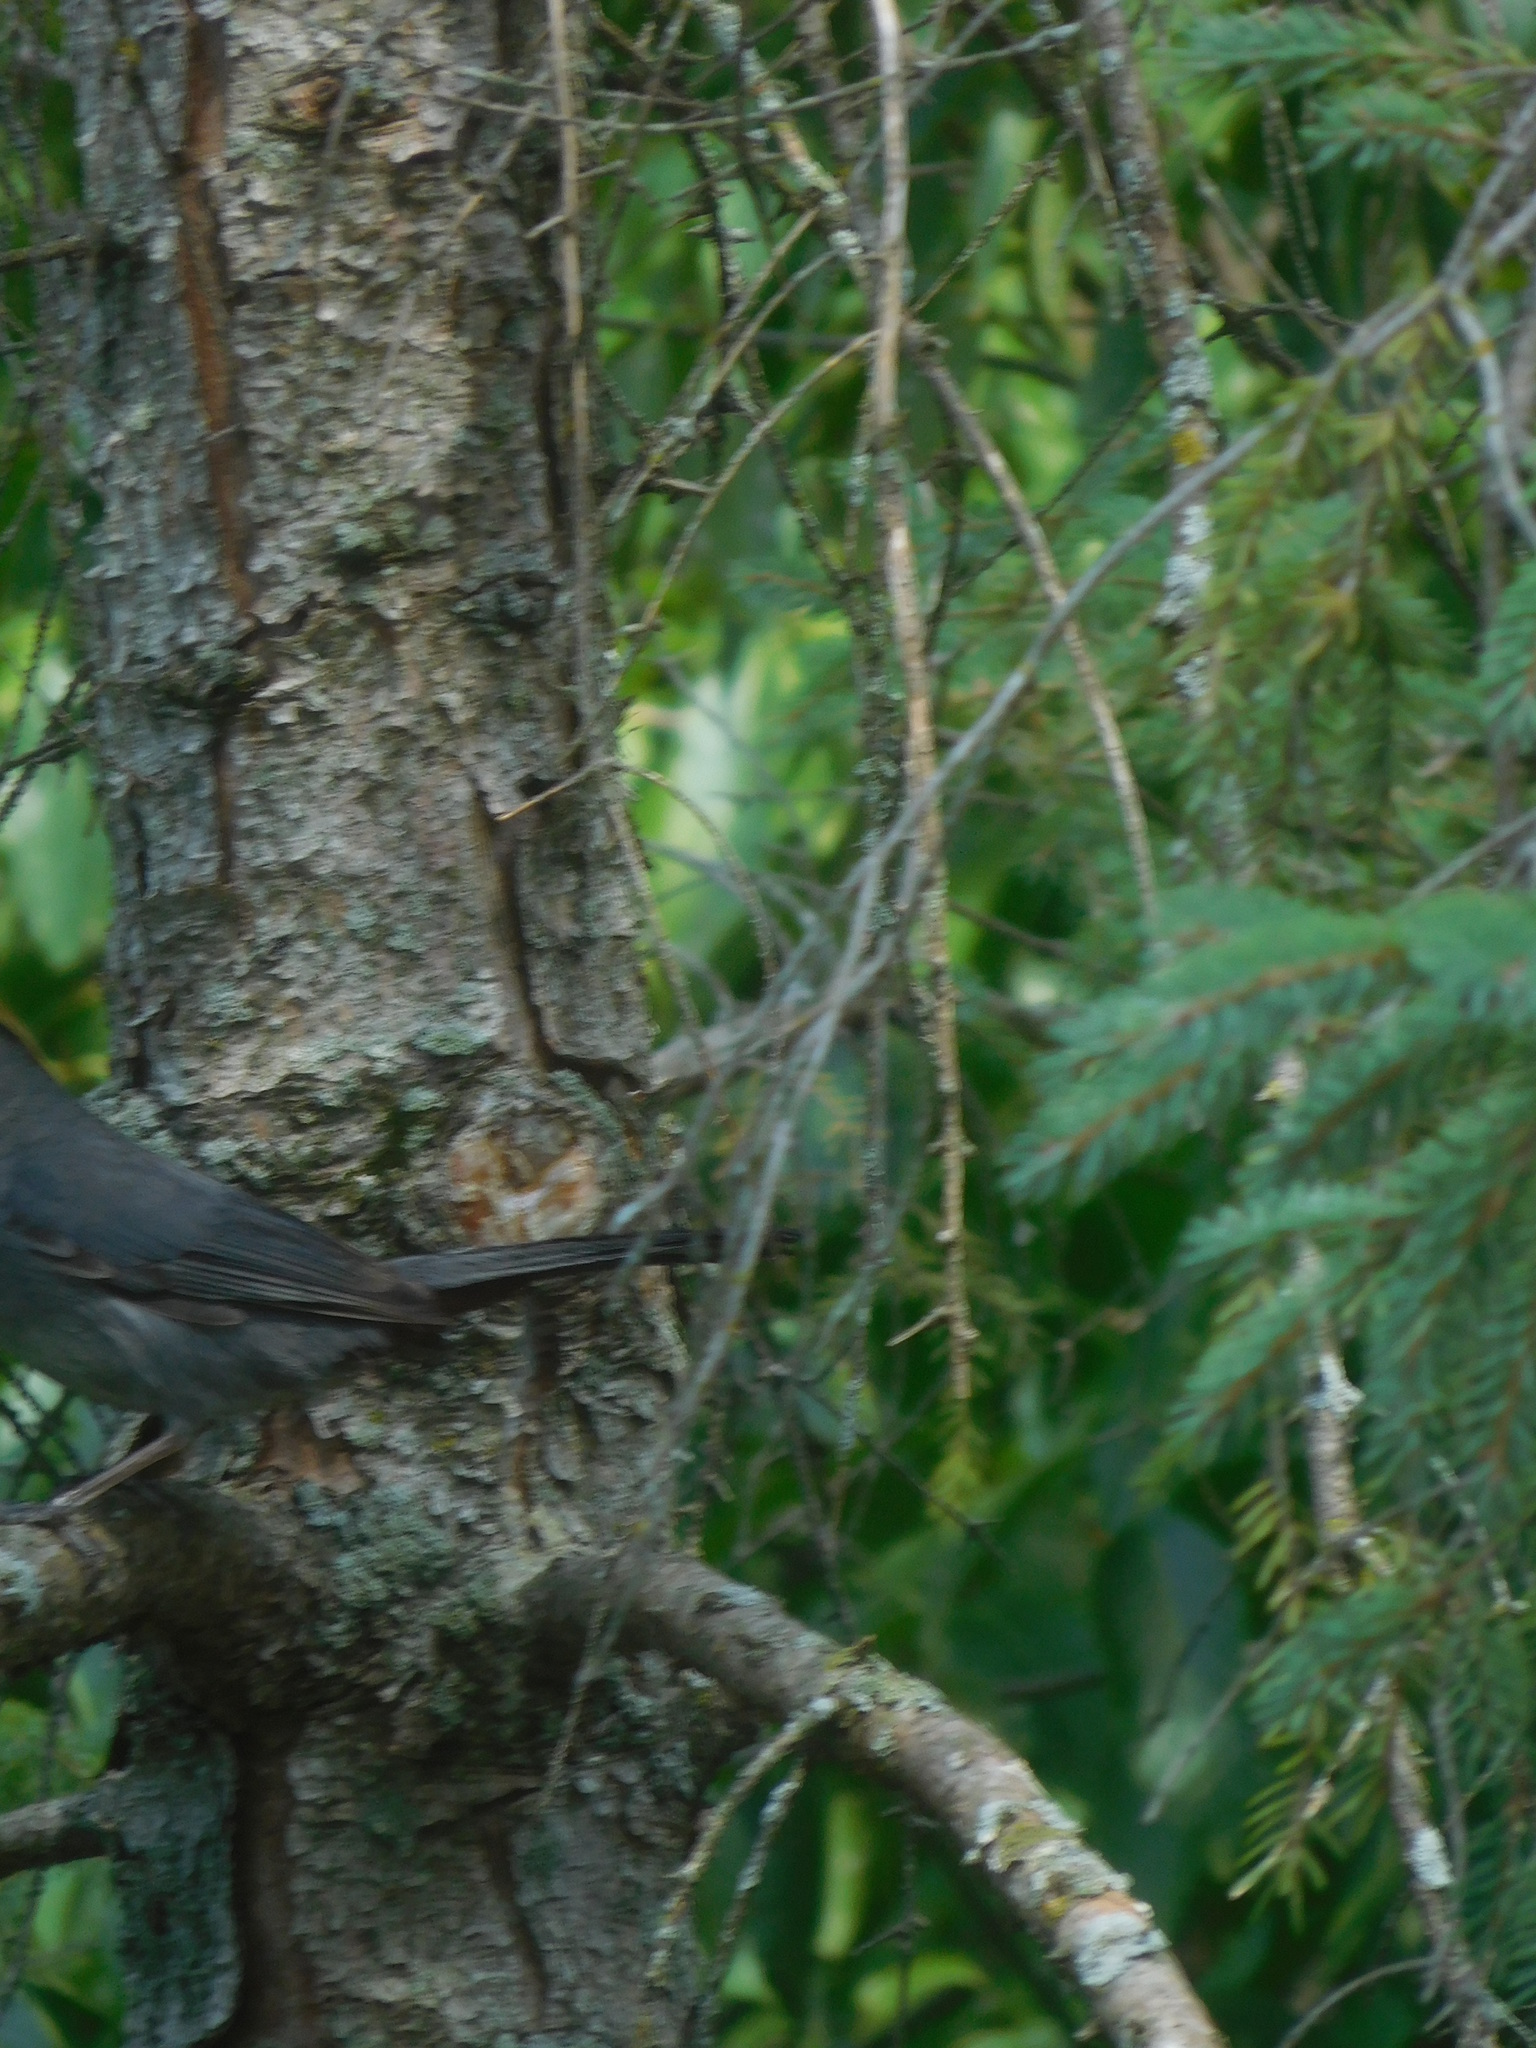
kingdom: Animalia
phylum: Chordata
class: Aves
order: Passeriformes
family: Mimidae
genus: Dumetella
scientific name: Dumetella carolinensis
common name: Gray catbird
